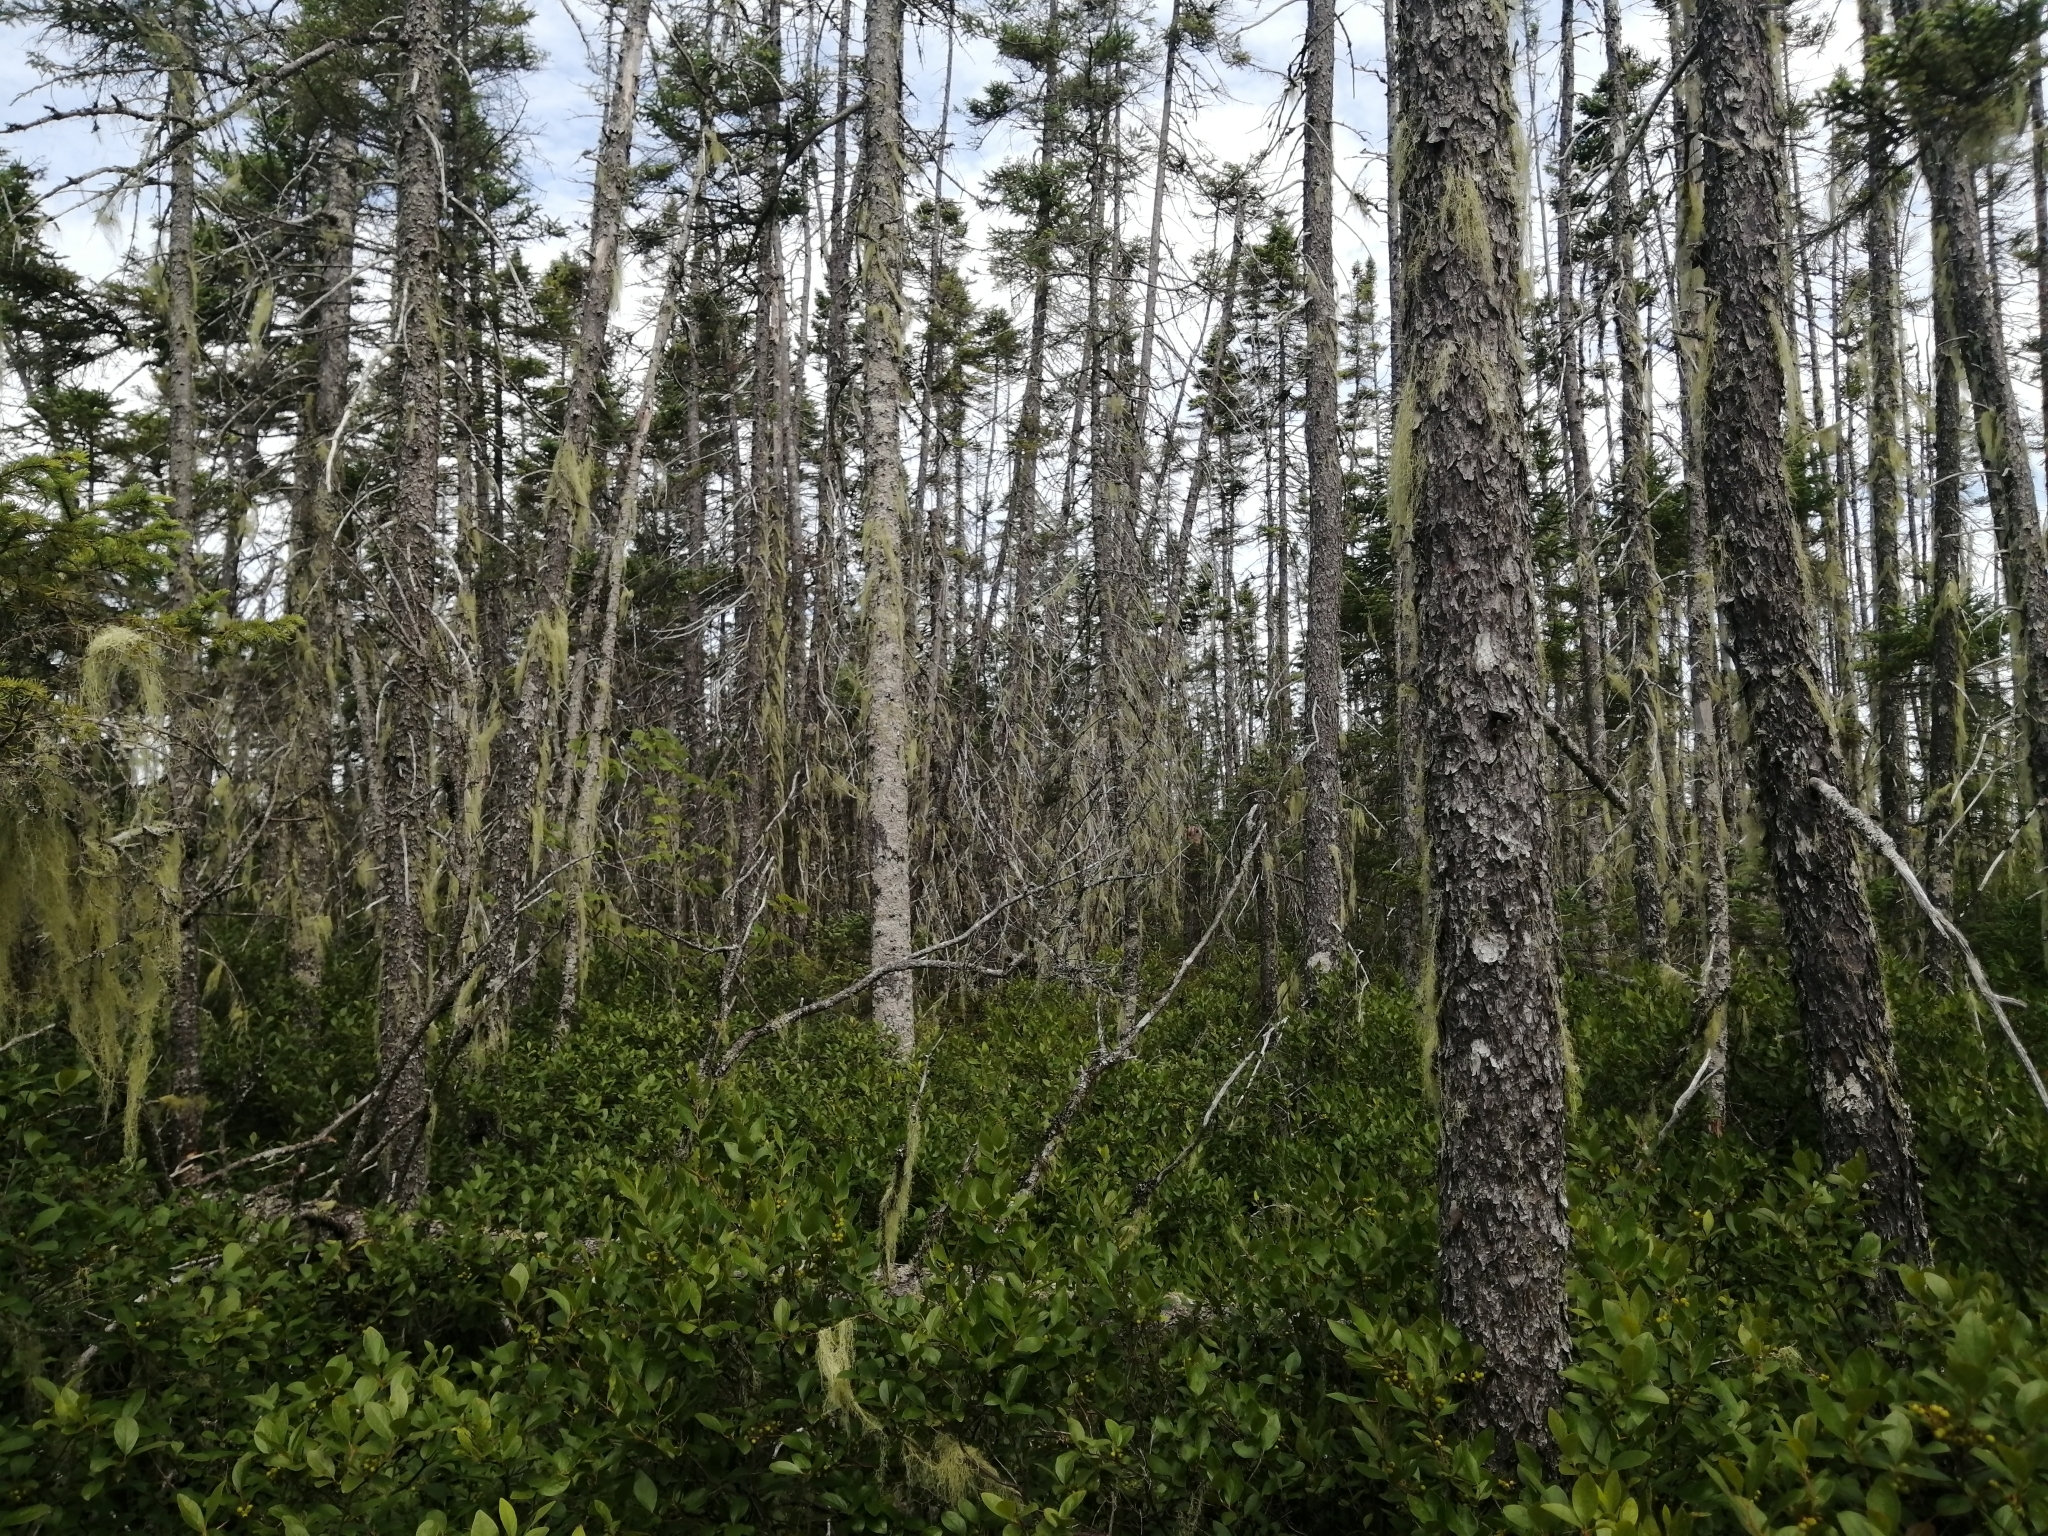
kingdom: Plantae
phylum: Tracheophyta
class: Pinopsida
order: Pinales
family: Pinaceae
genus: Picea
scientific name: Picea mariana
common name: Black spruce
